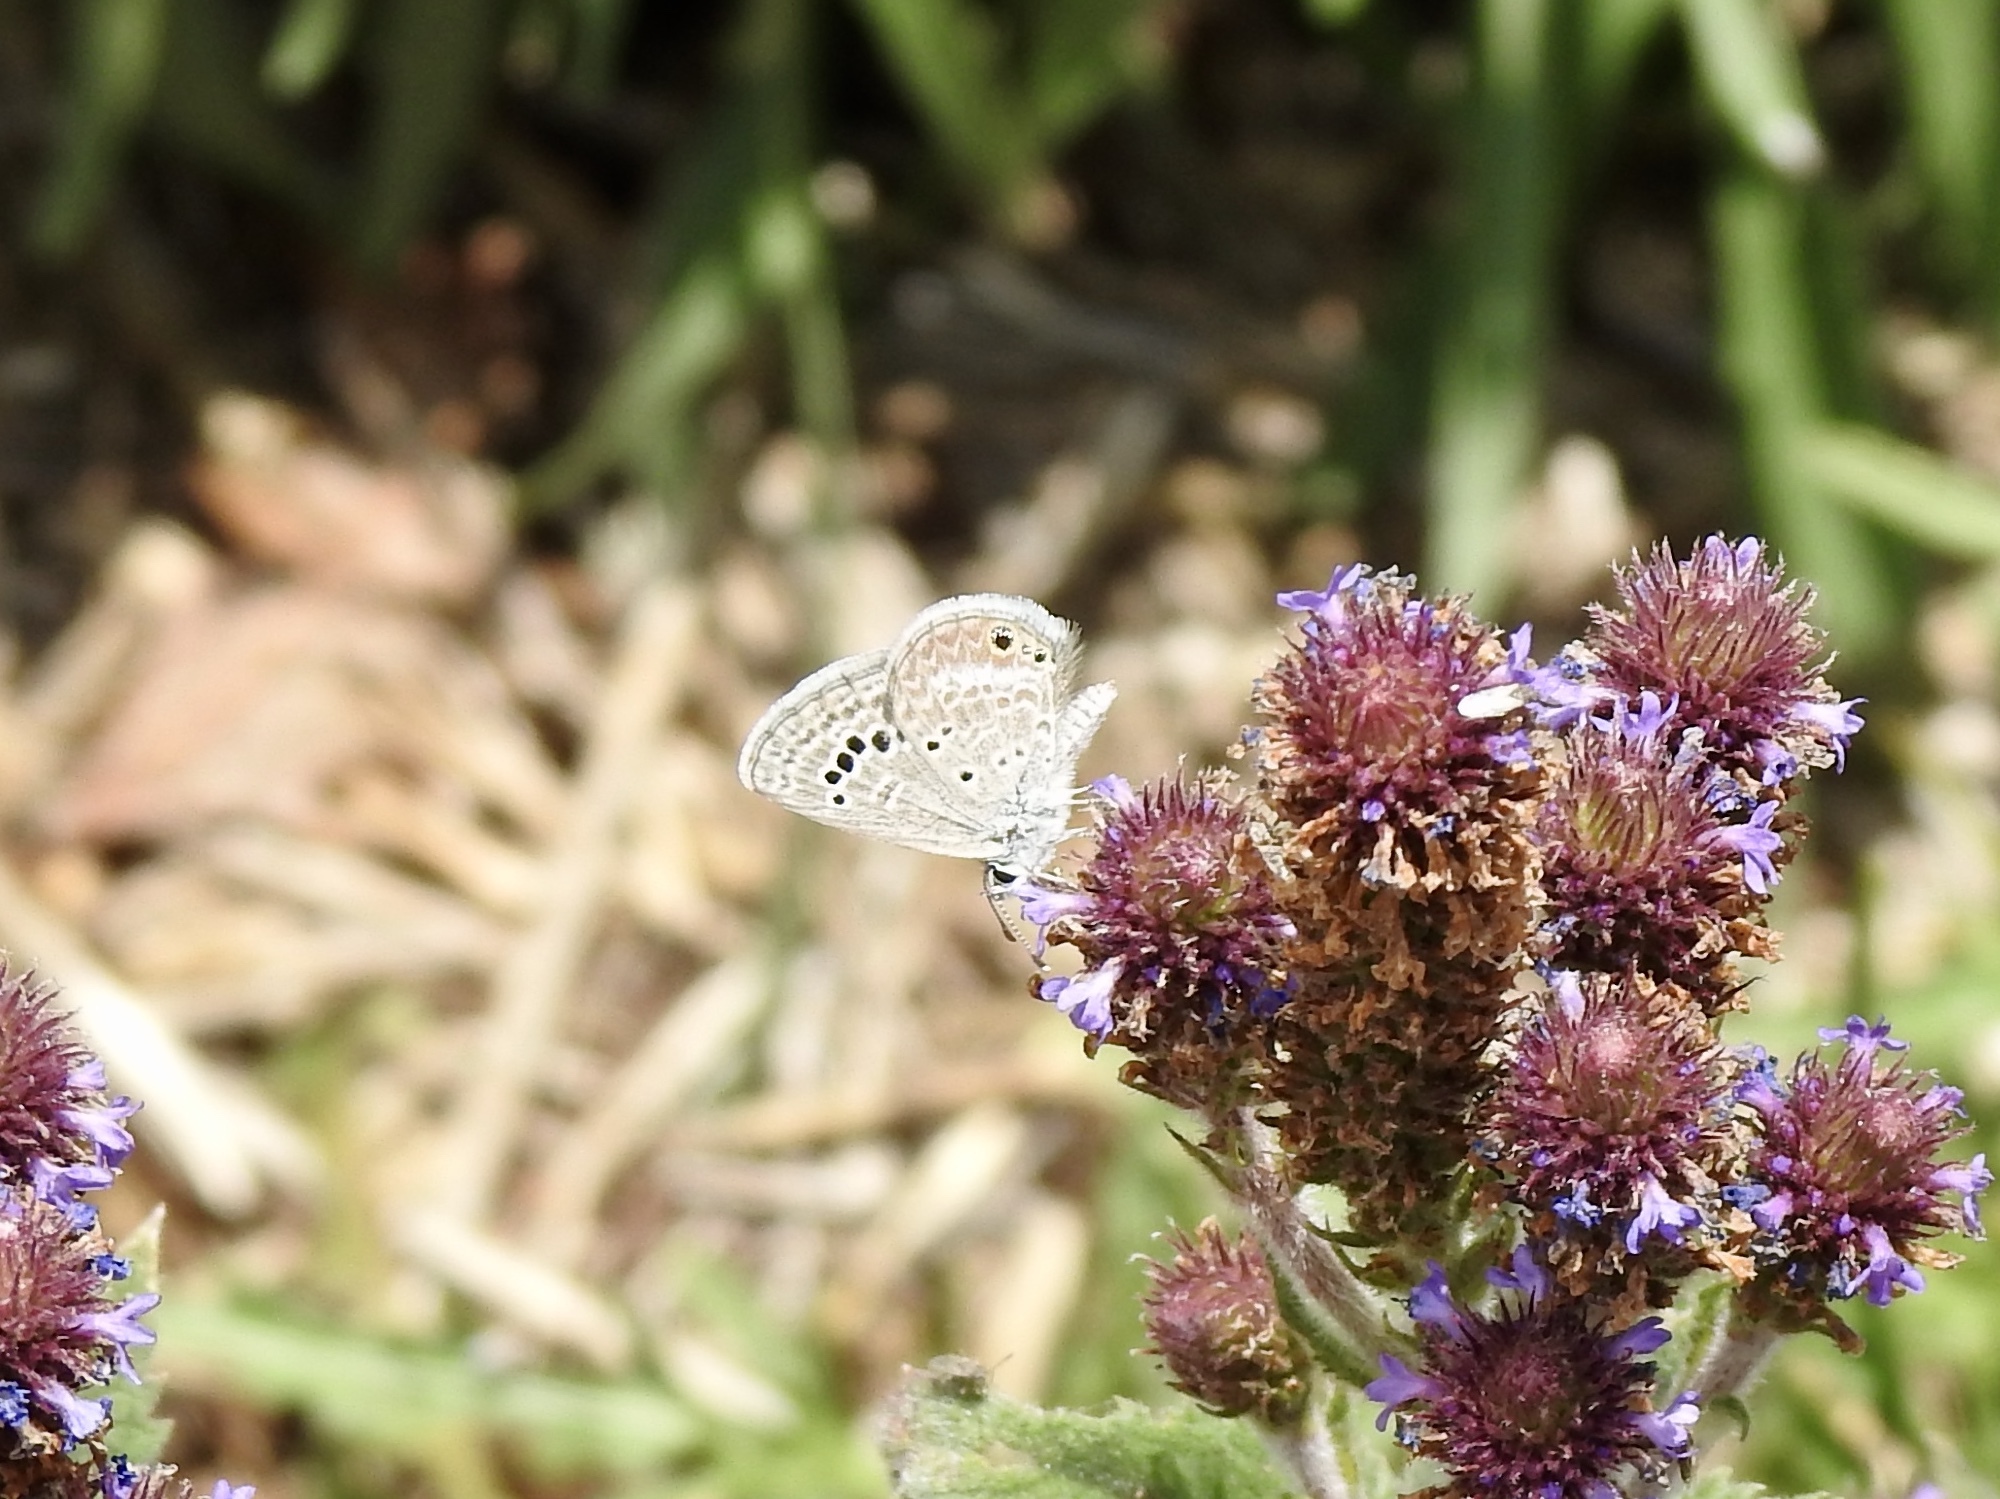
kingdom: Animalia
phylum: Arthropoda
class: Insecta
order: Lepidoptera
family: Lycaenidae
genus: Echinargus
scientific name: Echinargus isola
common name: Reakirt's blue
